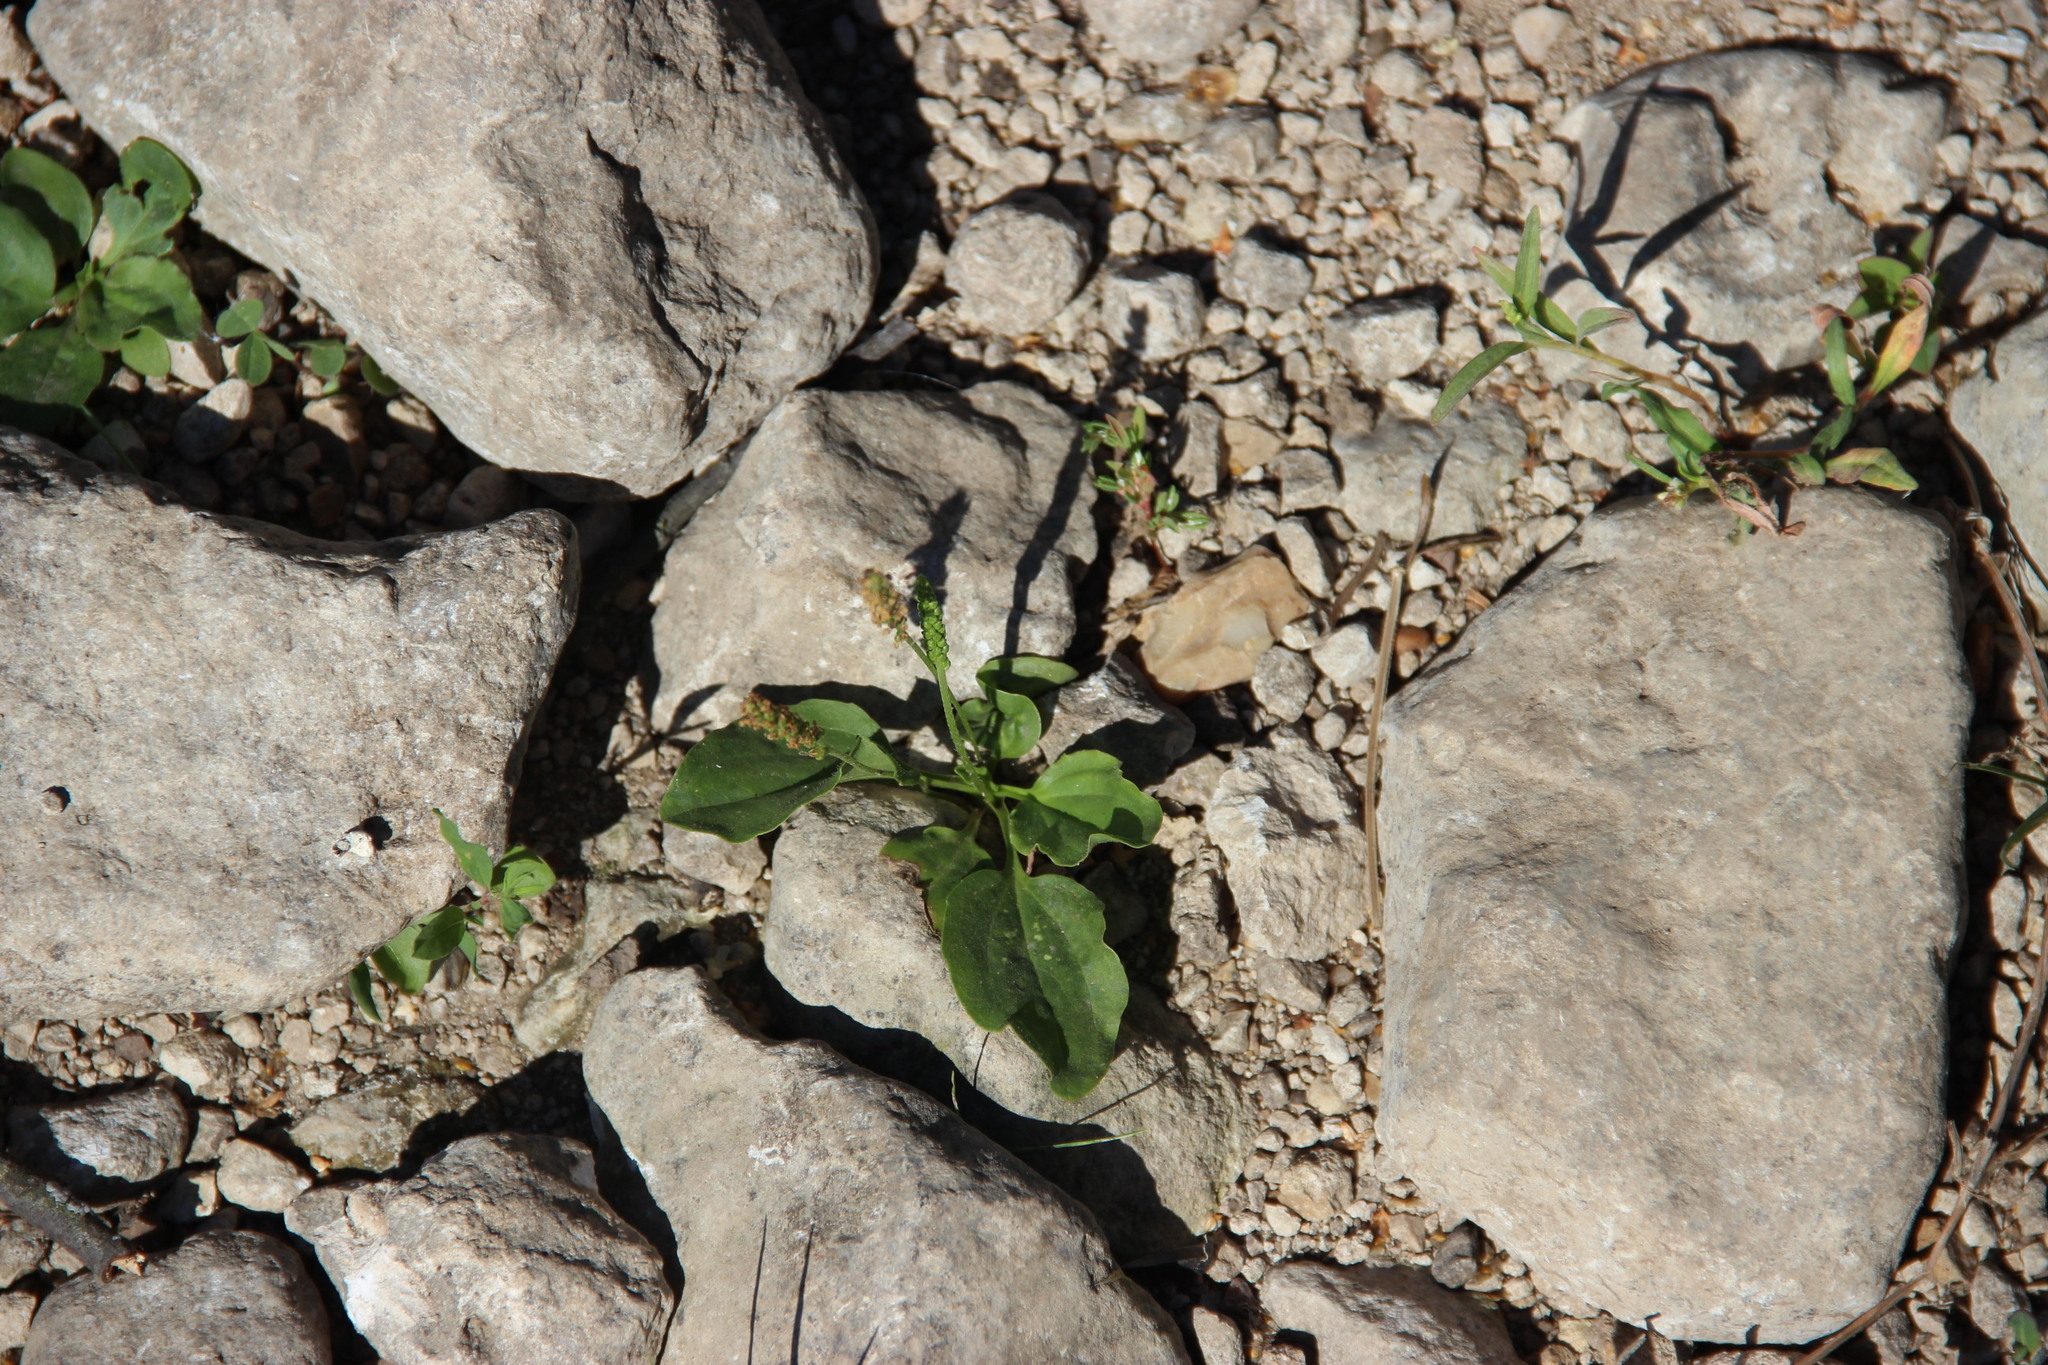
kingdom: Plantae
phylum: Tracheophyta
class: Magnoliopsida
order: Lamiales
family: Plantaginaceae
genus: Plantago
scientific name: Plantago major
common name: Common plantain
